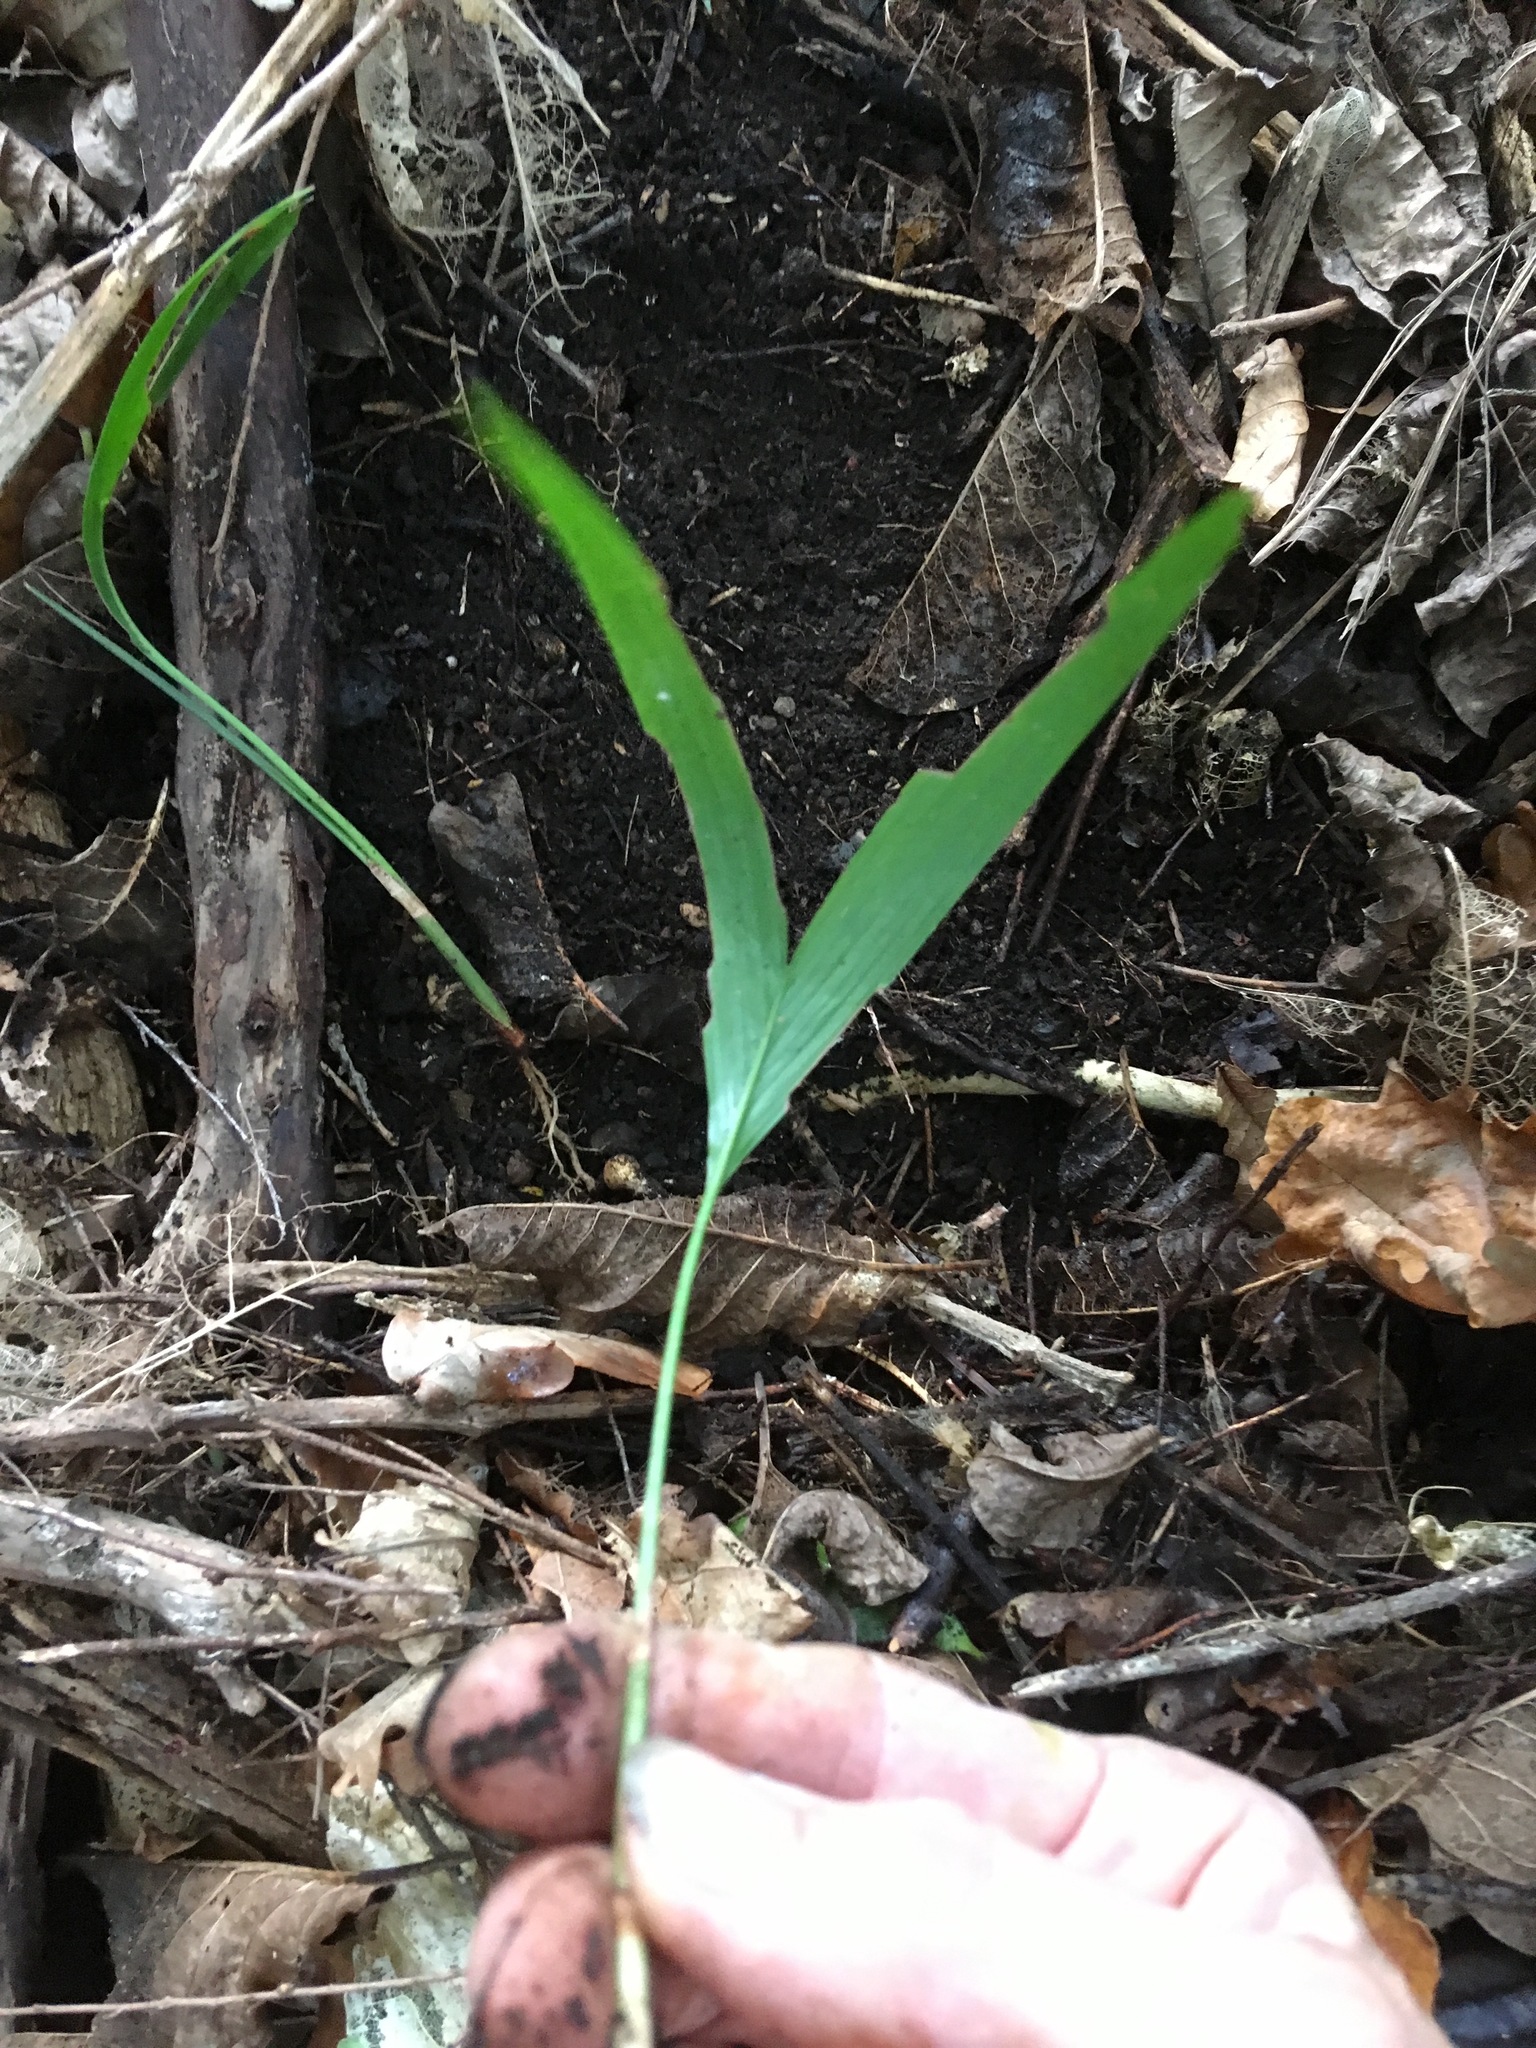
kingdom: Plantae
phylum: Tracheophyta
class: Liliopsida
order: Arecales
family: Arecaceae
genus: Archontophoenix
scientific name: Archontophoenix cunninghamiana
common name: Piccabeen bangalow palm
